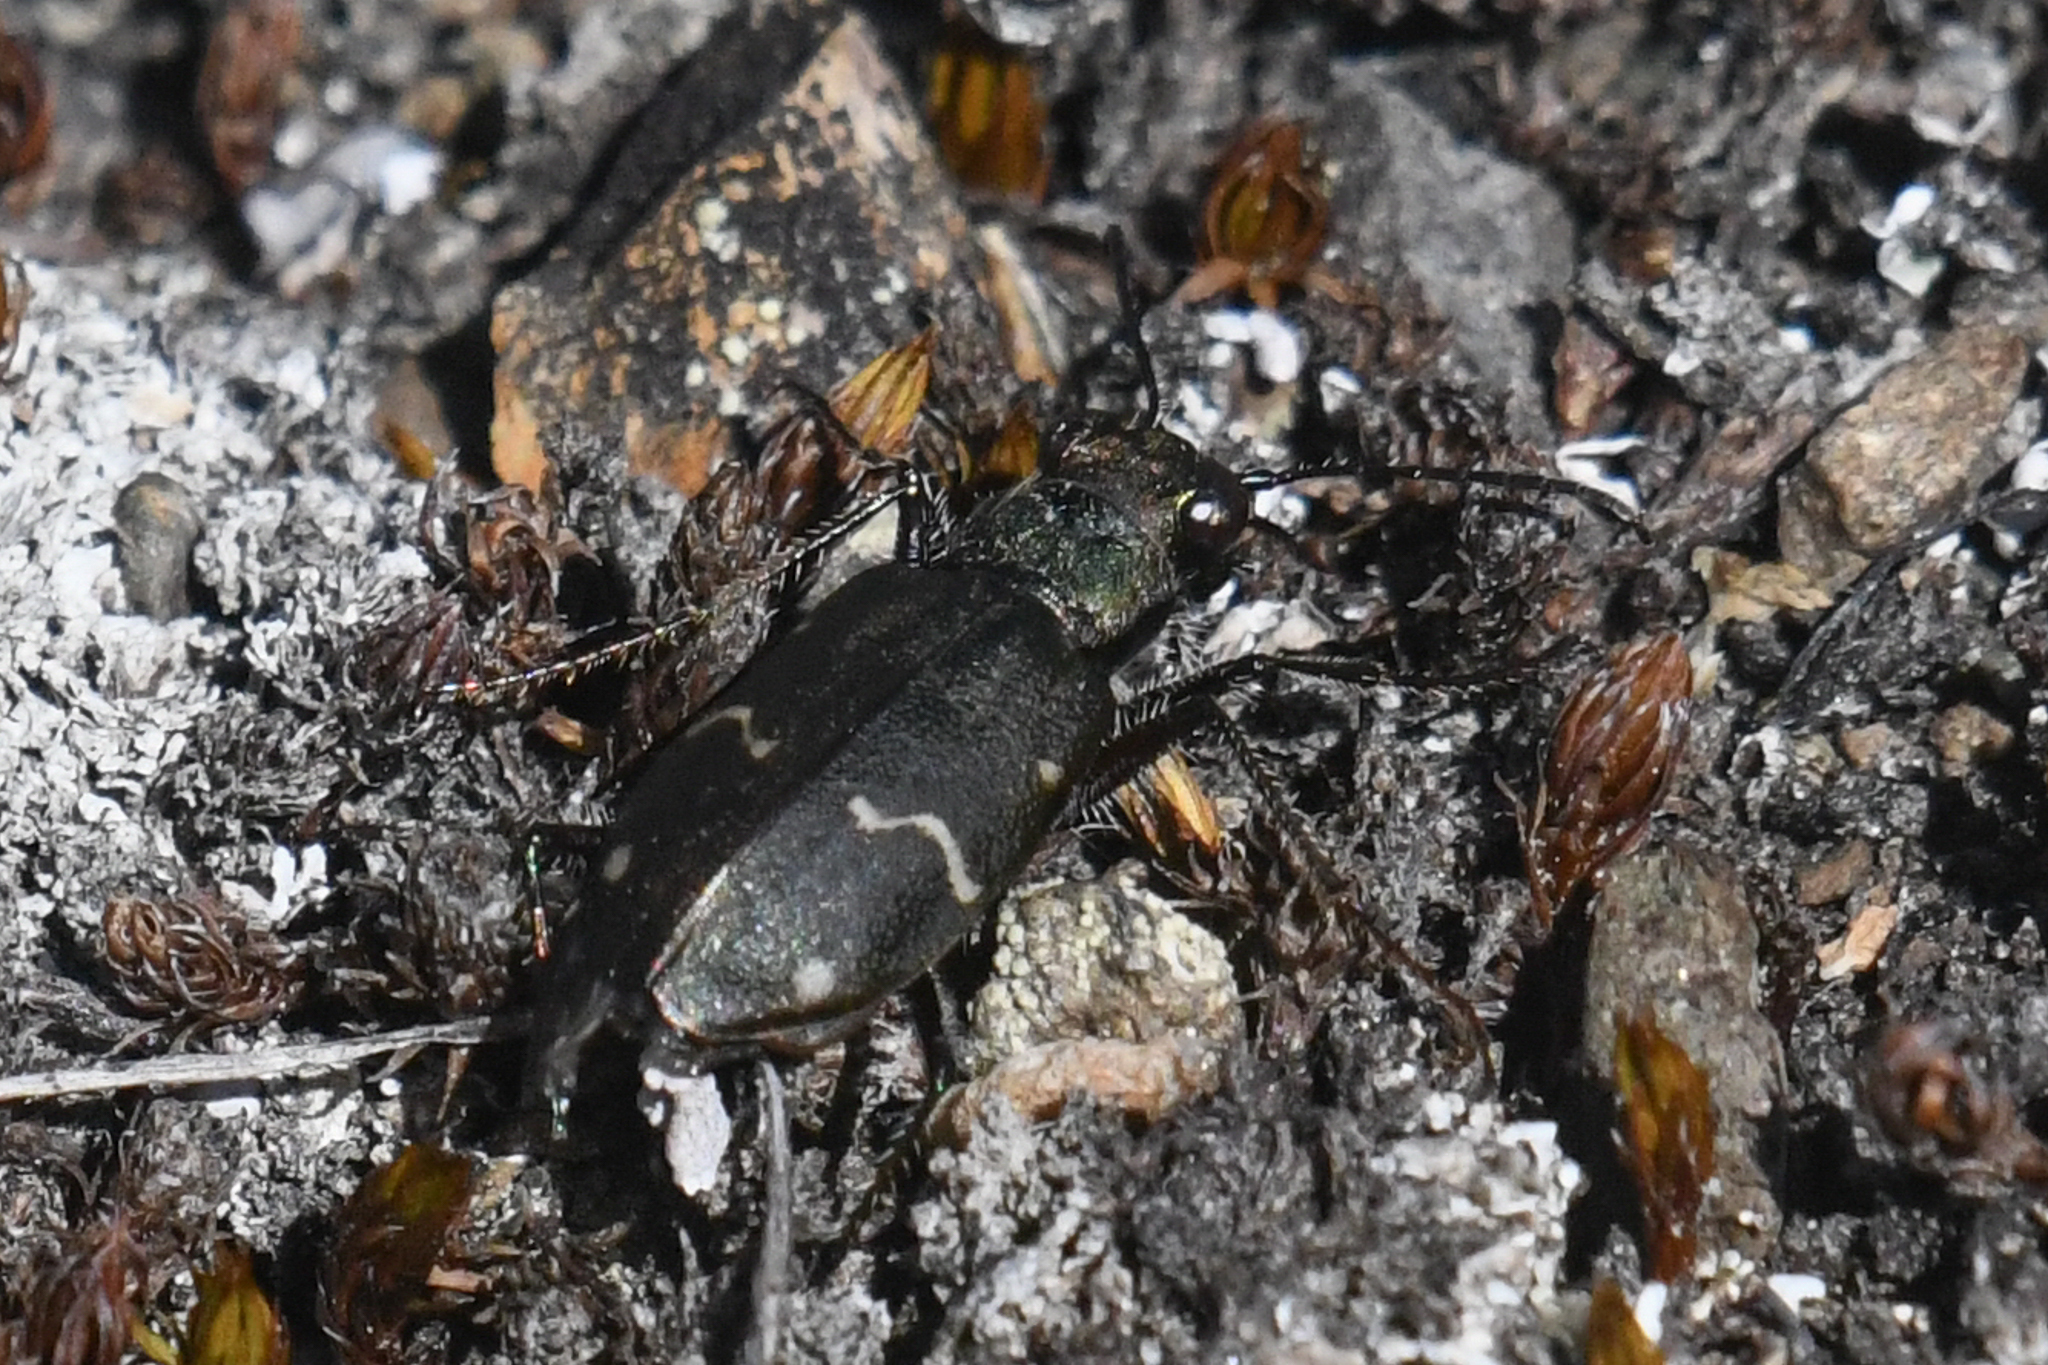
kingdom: Animalia
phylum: Arthropoda
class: Insecta
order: Coleoptera
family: Carabidae
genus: Cicindela
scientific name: Cicindela longilabris
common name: Boreal long-lipped tiger beetle
